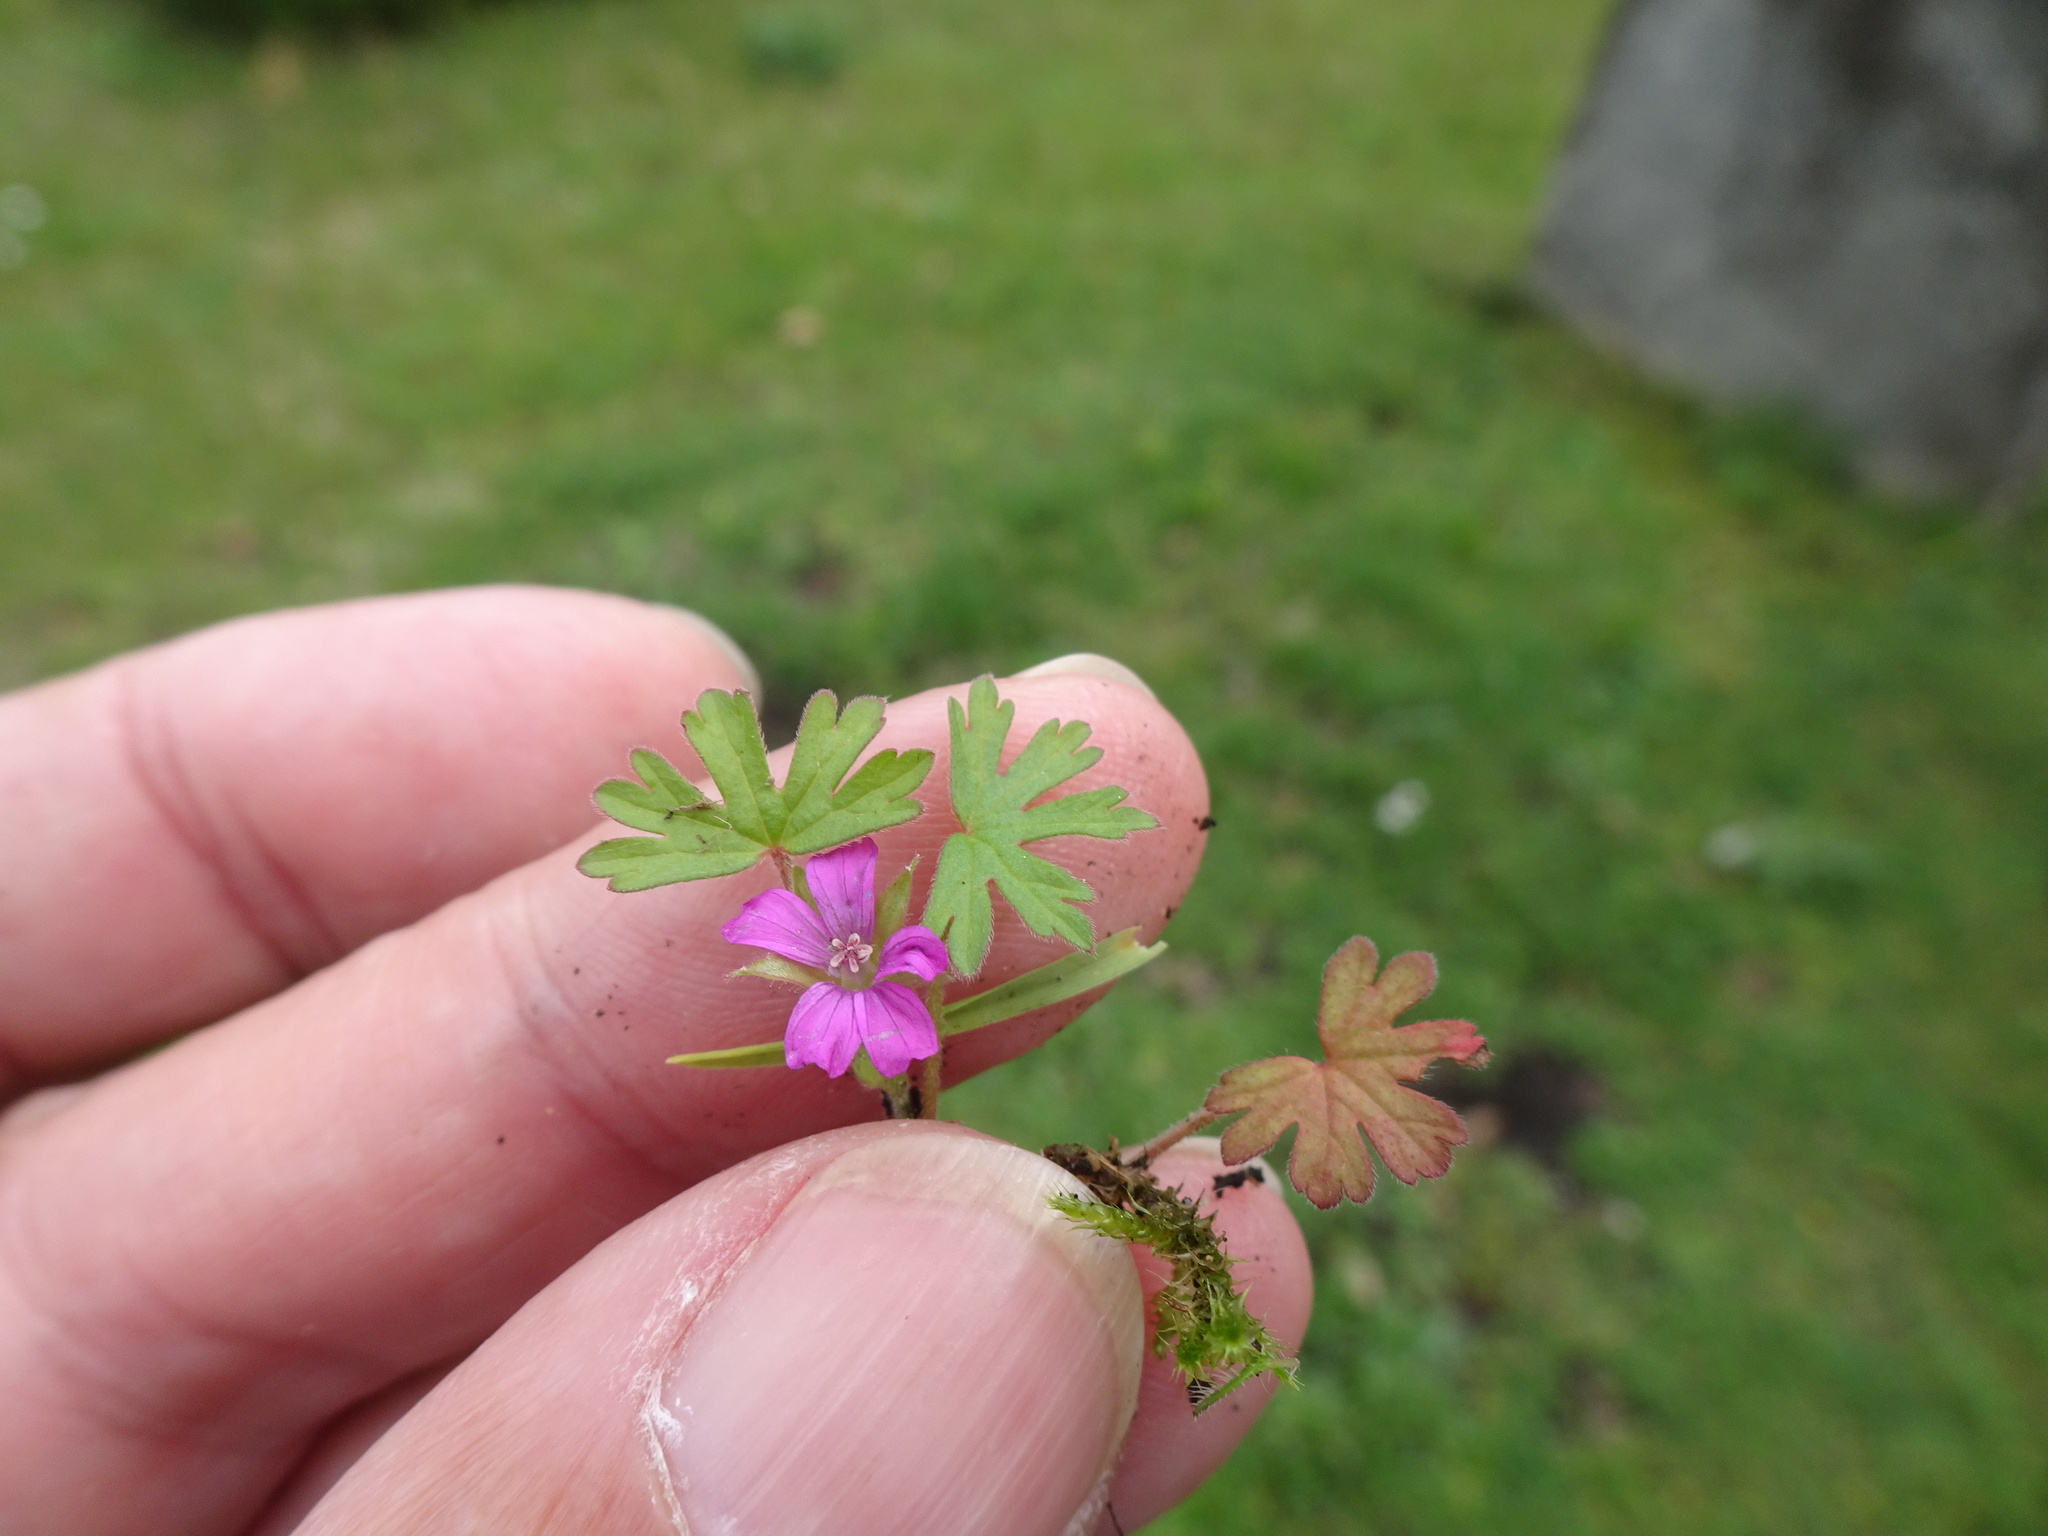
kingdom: Plantae
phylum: Tracheophyta
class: Magnoliopsida
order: Geraniales
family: Geraniaceae
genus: Geranium
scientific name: Geranium dissectum
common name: Cut-leaved crane's-bill
